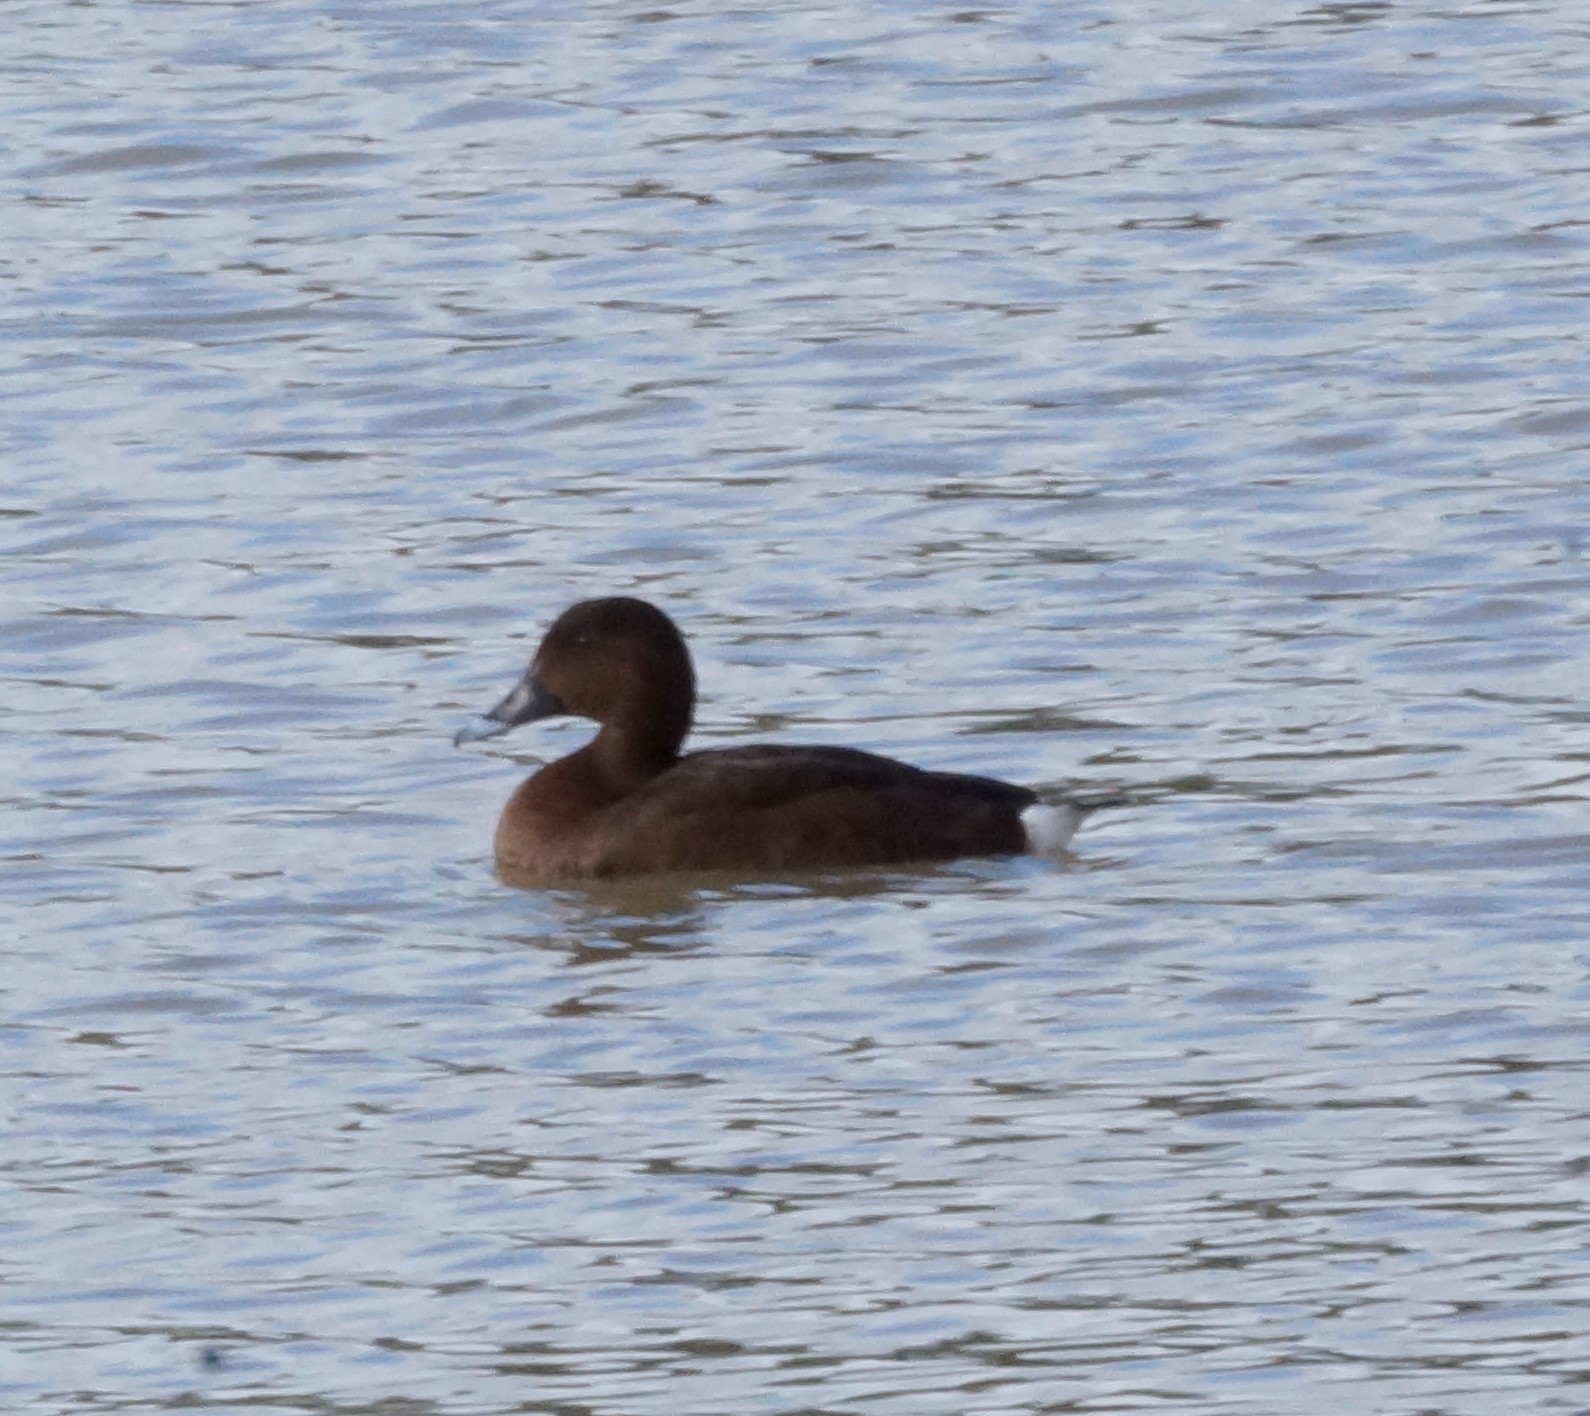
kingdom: Animalia
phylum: Chordata
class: Aves
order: Anseriformes
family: Anatidae
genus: Aythya
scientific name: Aythya australis
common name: Hardhead
